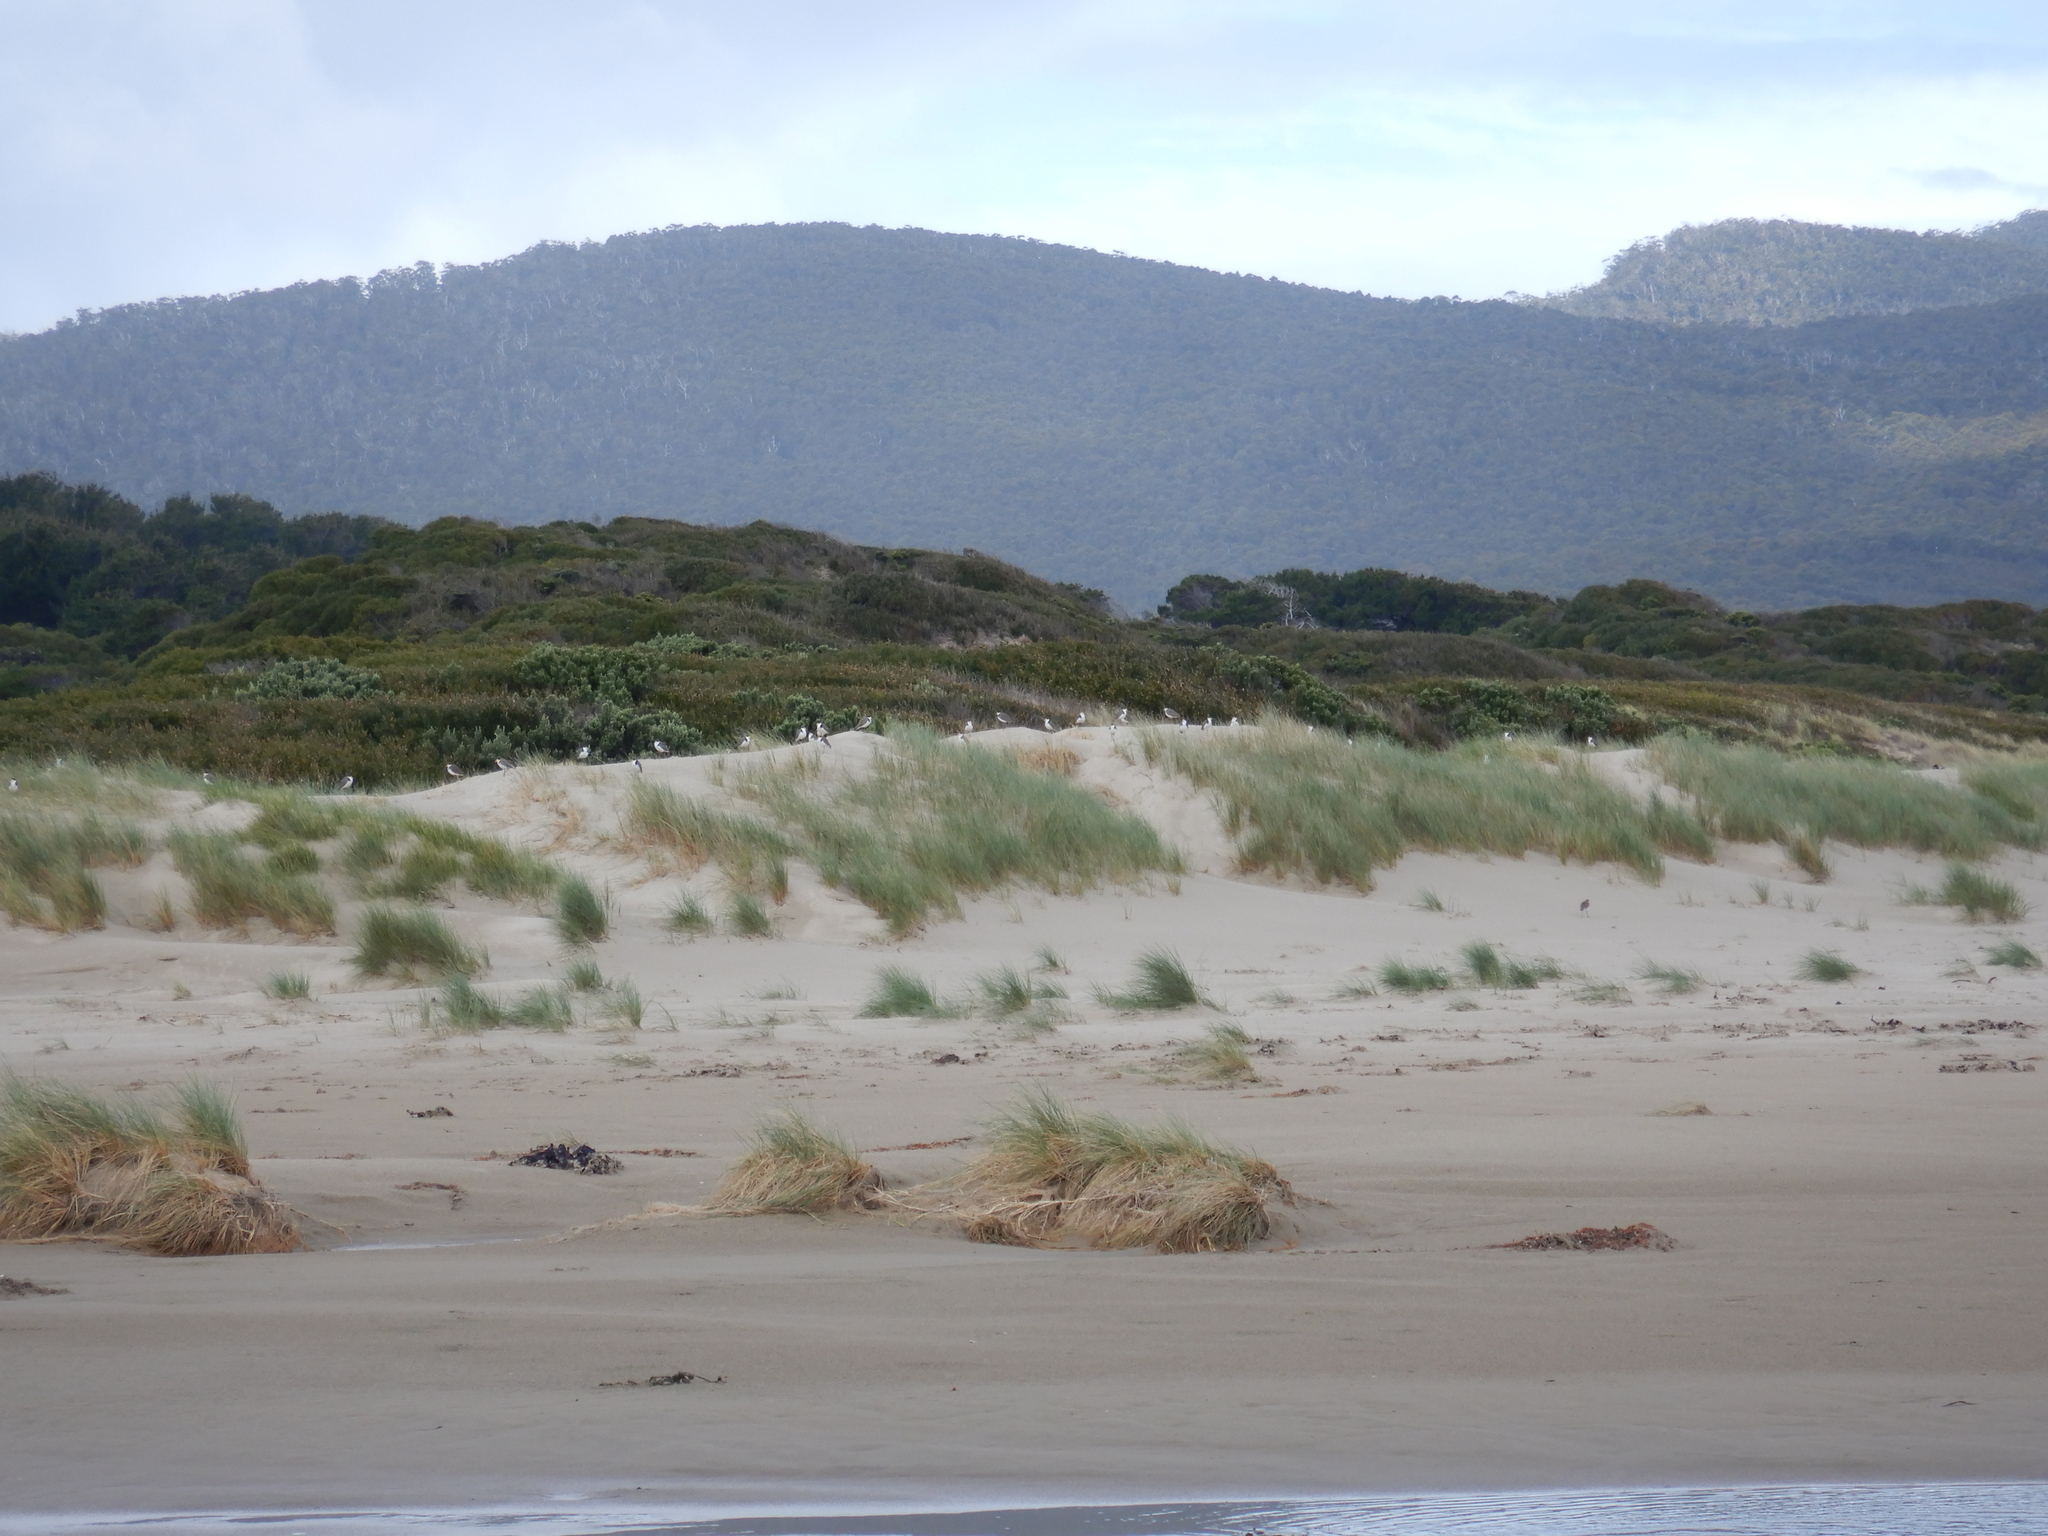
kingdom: Animalia
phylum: Chordata
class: Aves
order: Charadriiformes
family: Charadriidae
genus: Vanellus
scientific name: Vanellus miles
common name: Masked lapwing
